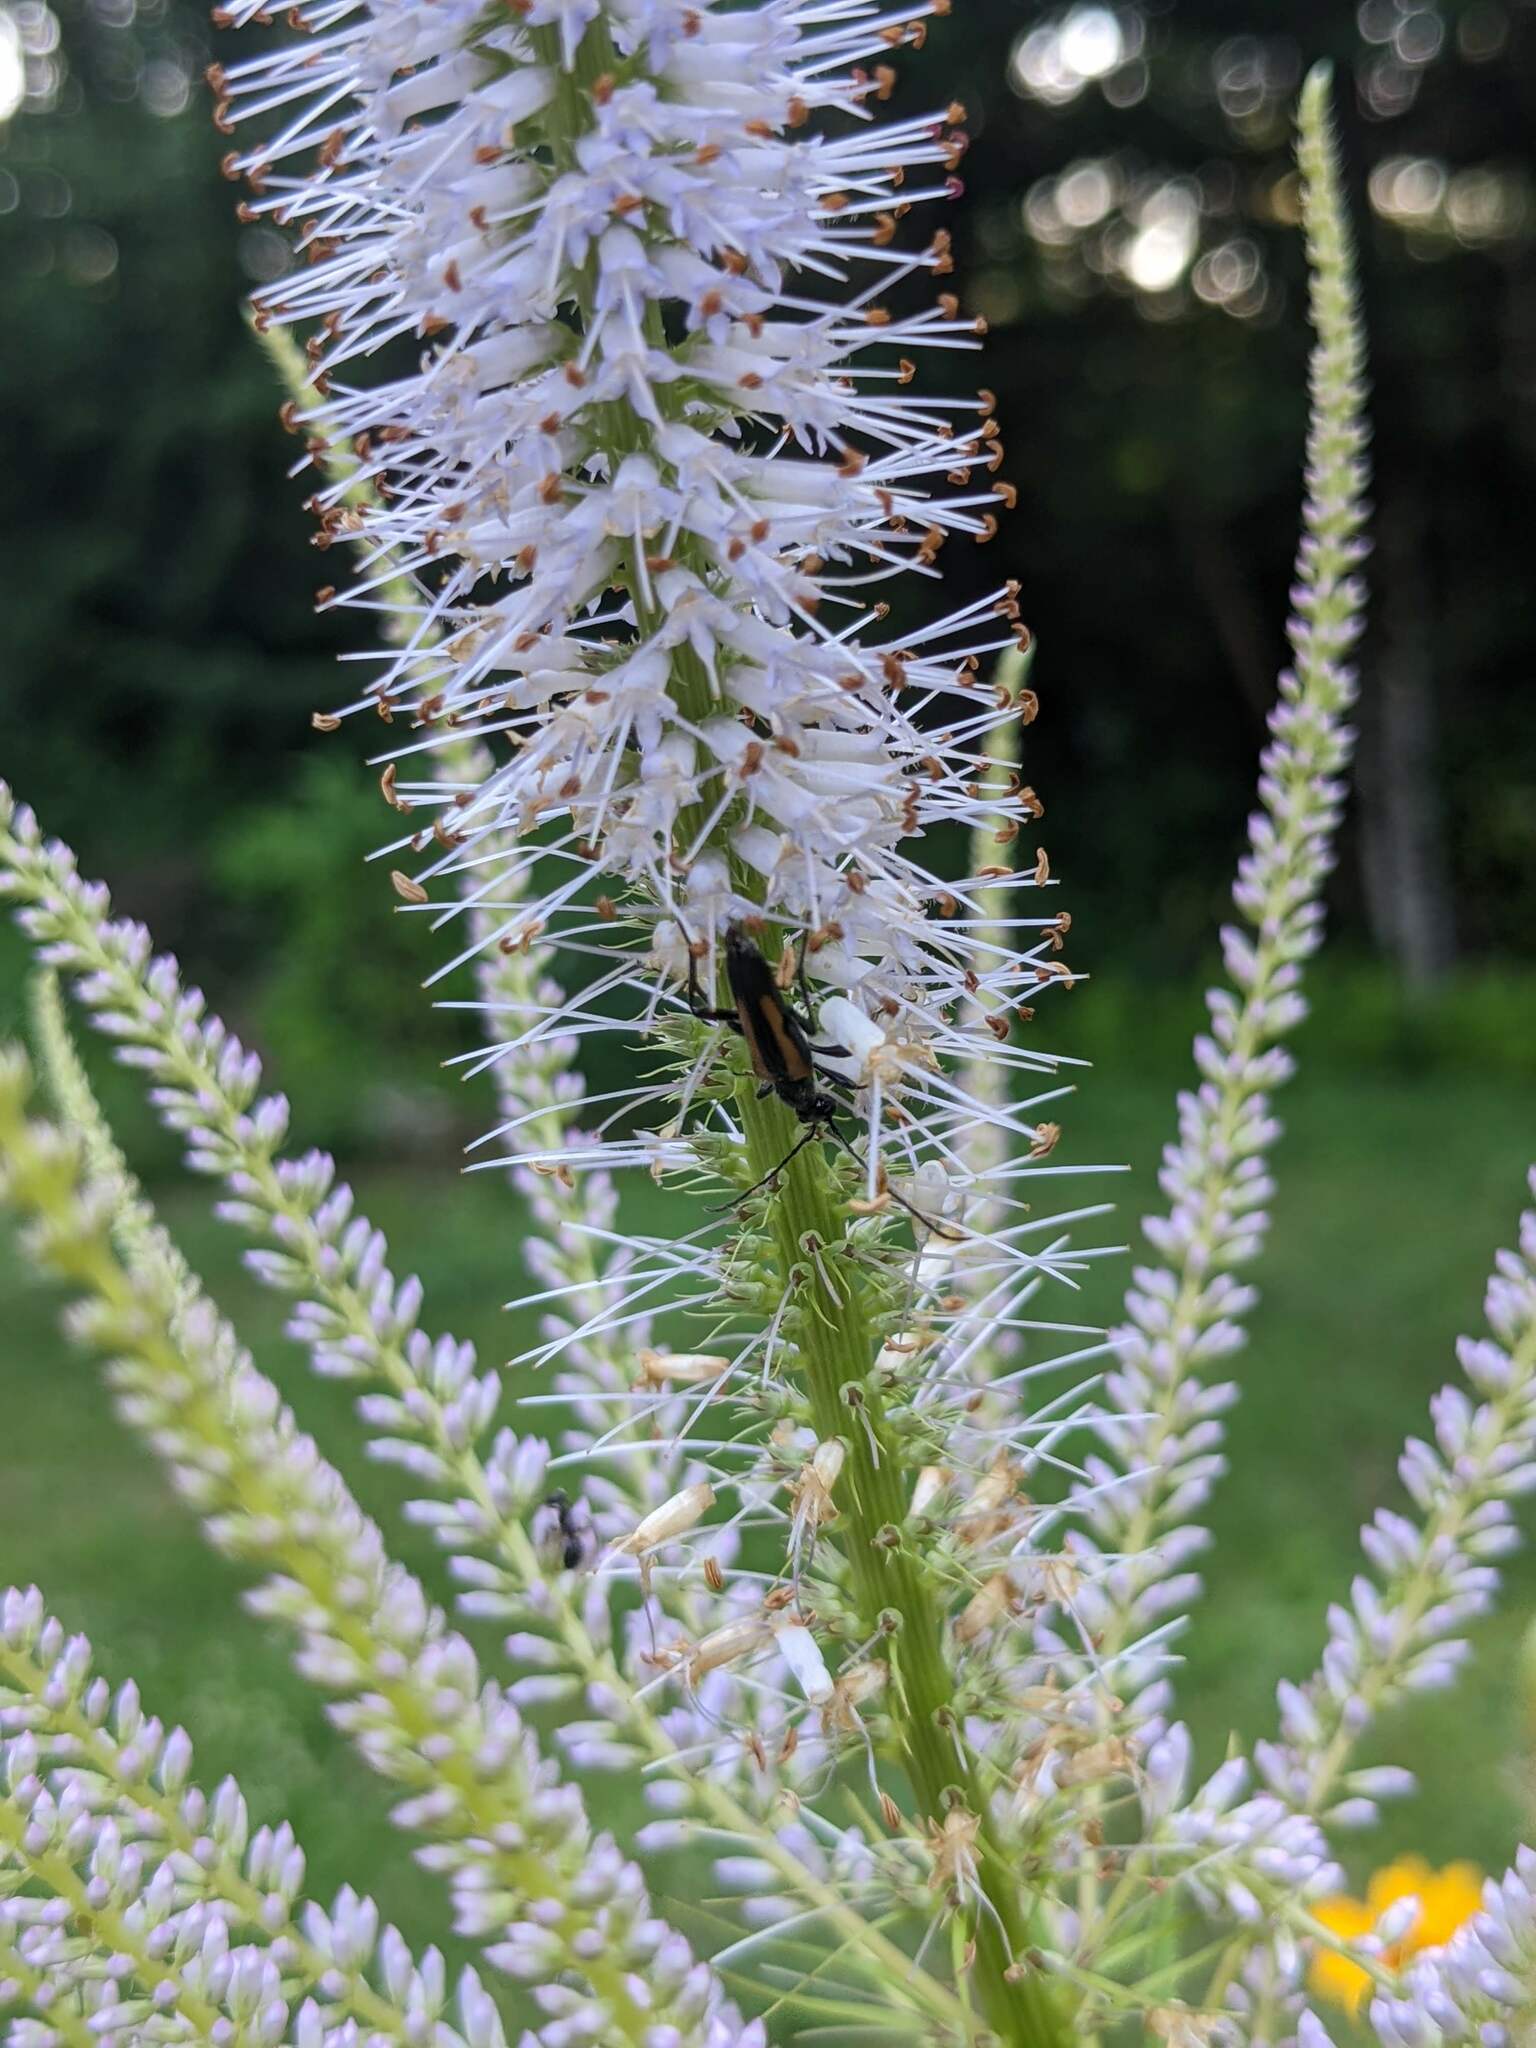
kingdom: Animalia
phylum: Arthropoda
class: Insecta
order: Coleoptera
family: Cerambycidae
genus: Strangalepta
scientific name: Strangalepta abbreviata
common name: Strangalepta flower longhorn beetle
